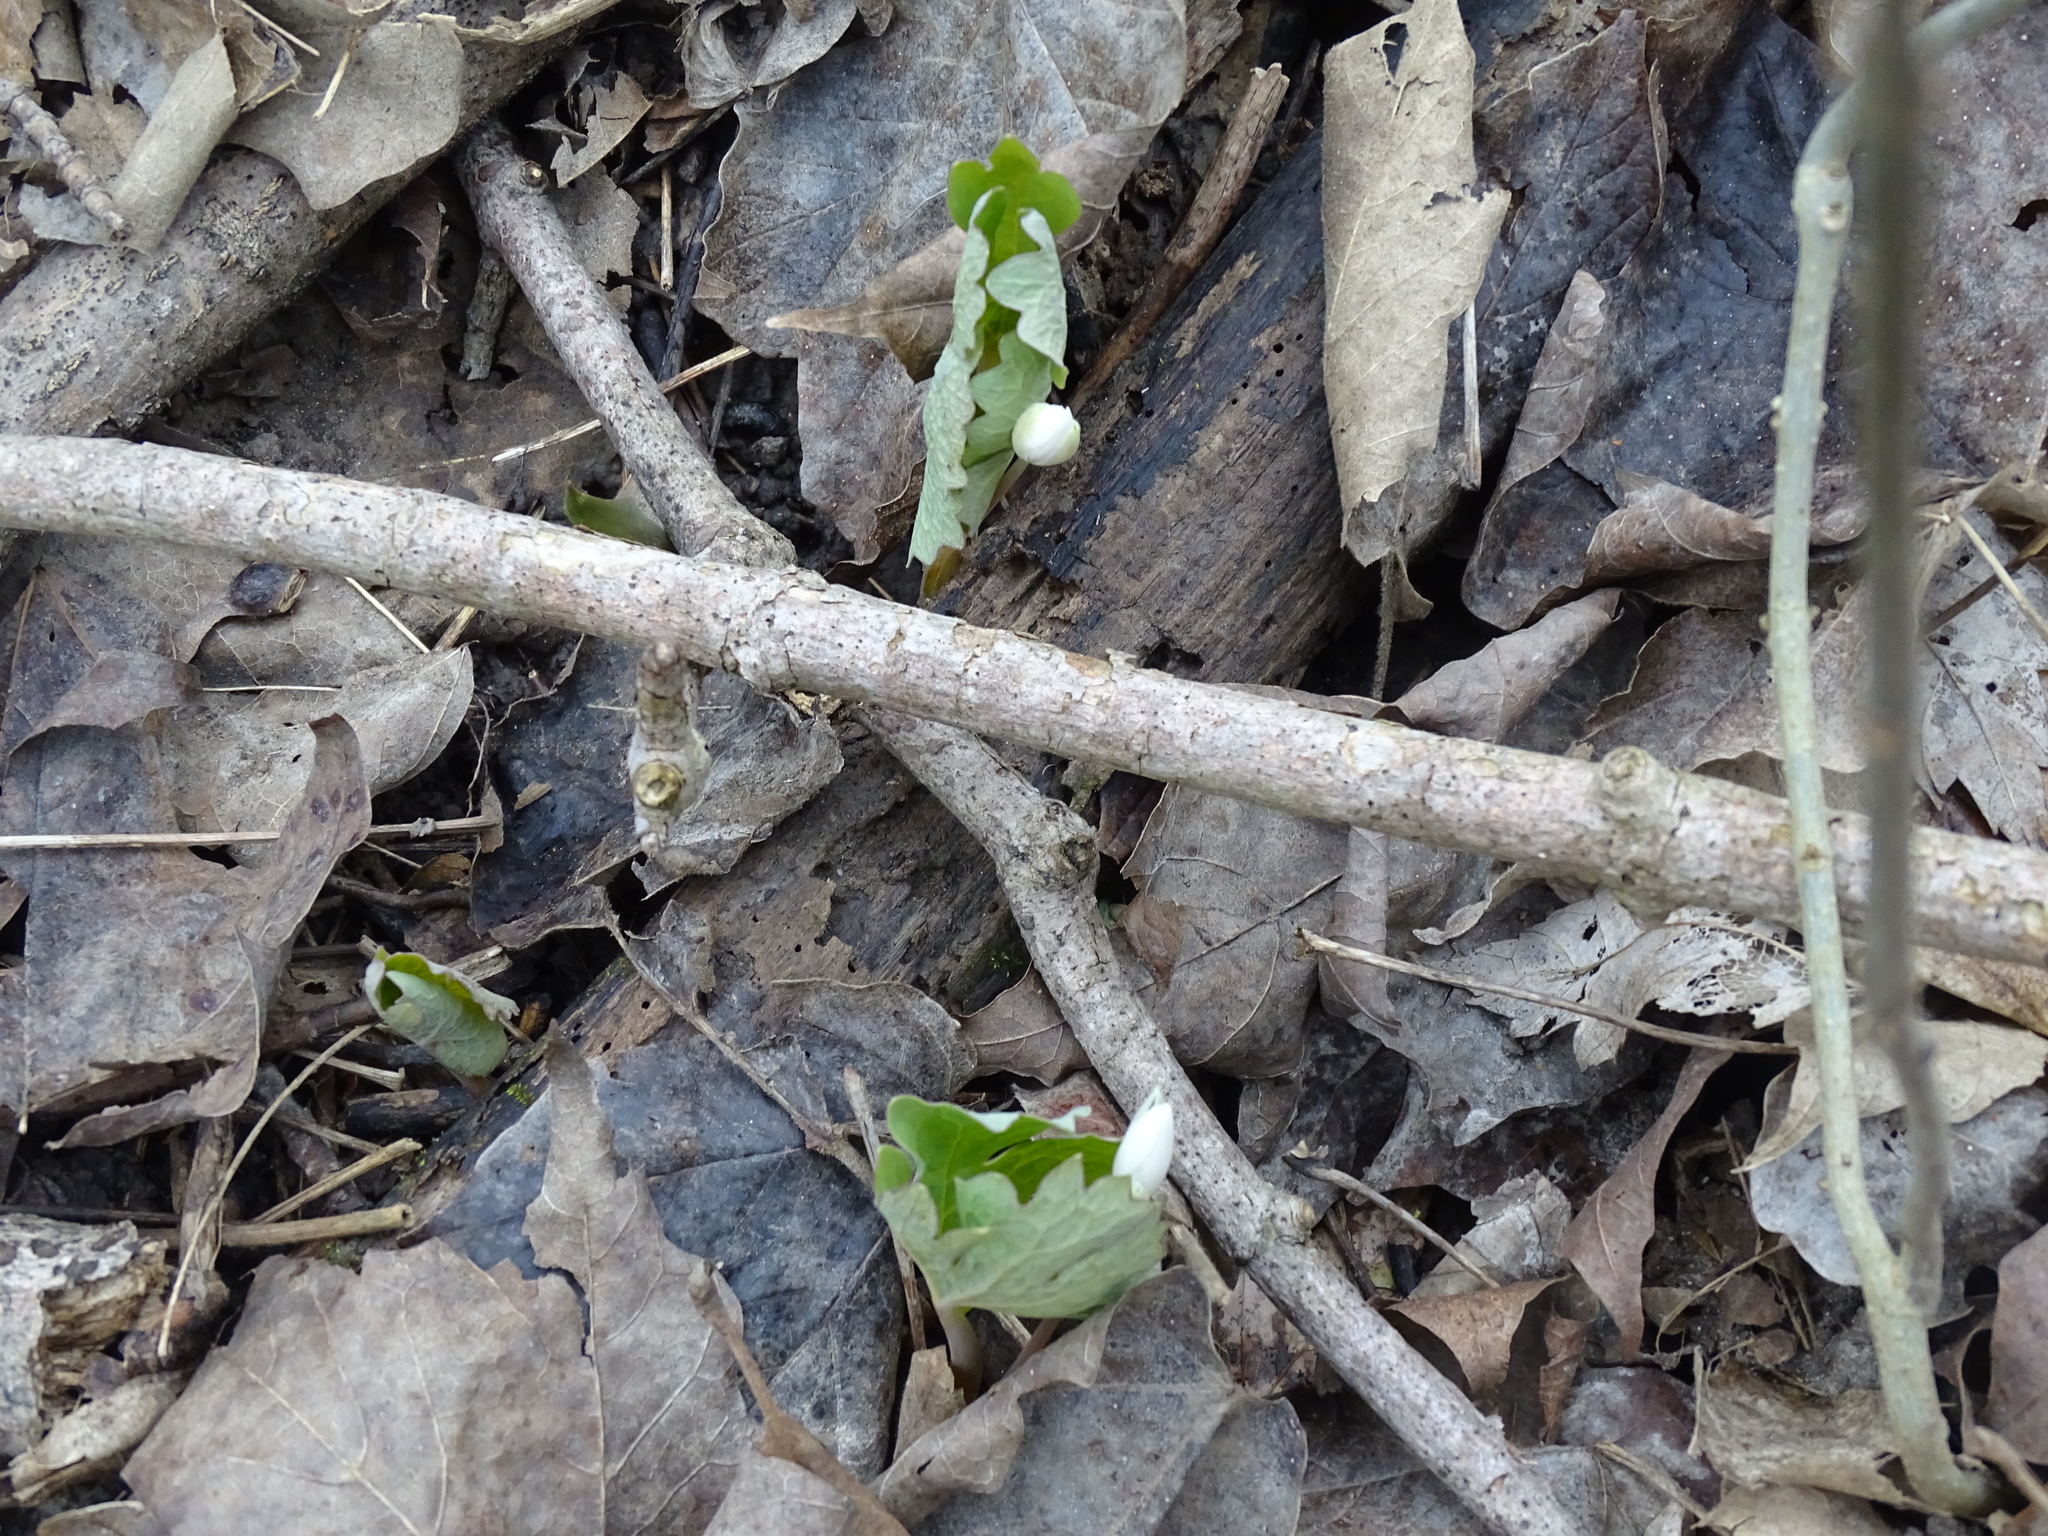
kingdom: Plantae
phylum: Tracheophyta
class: Magnoliopsida
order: Ranunculales
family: Papaveraceae
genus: Sanguinaria
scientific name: Sanguinaria canadensis
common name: Bloodroot
